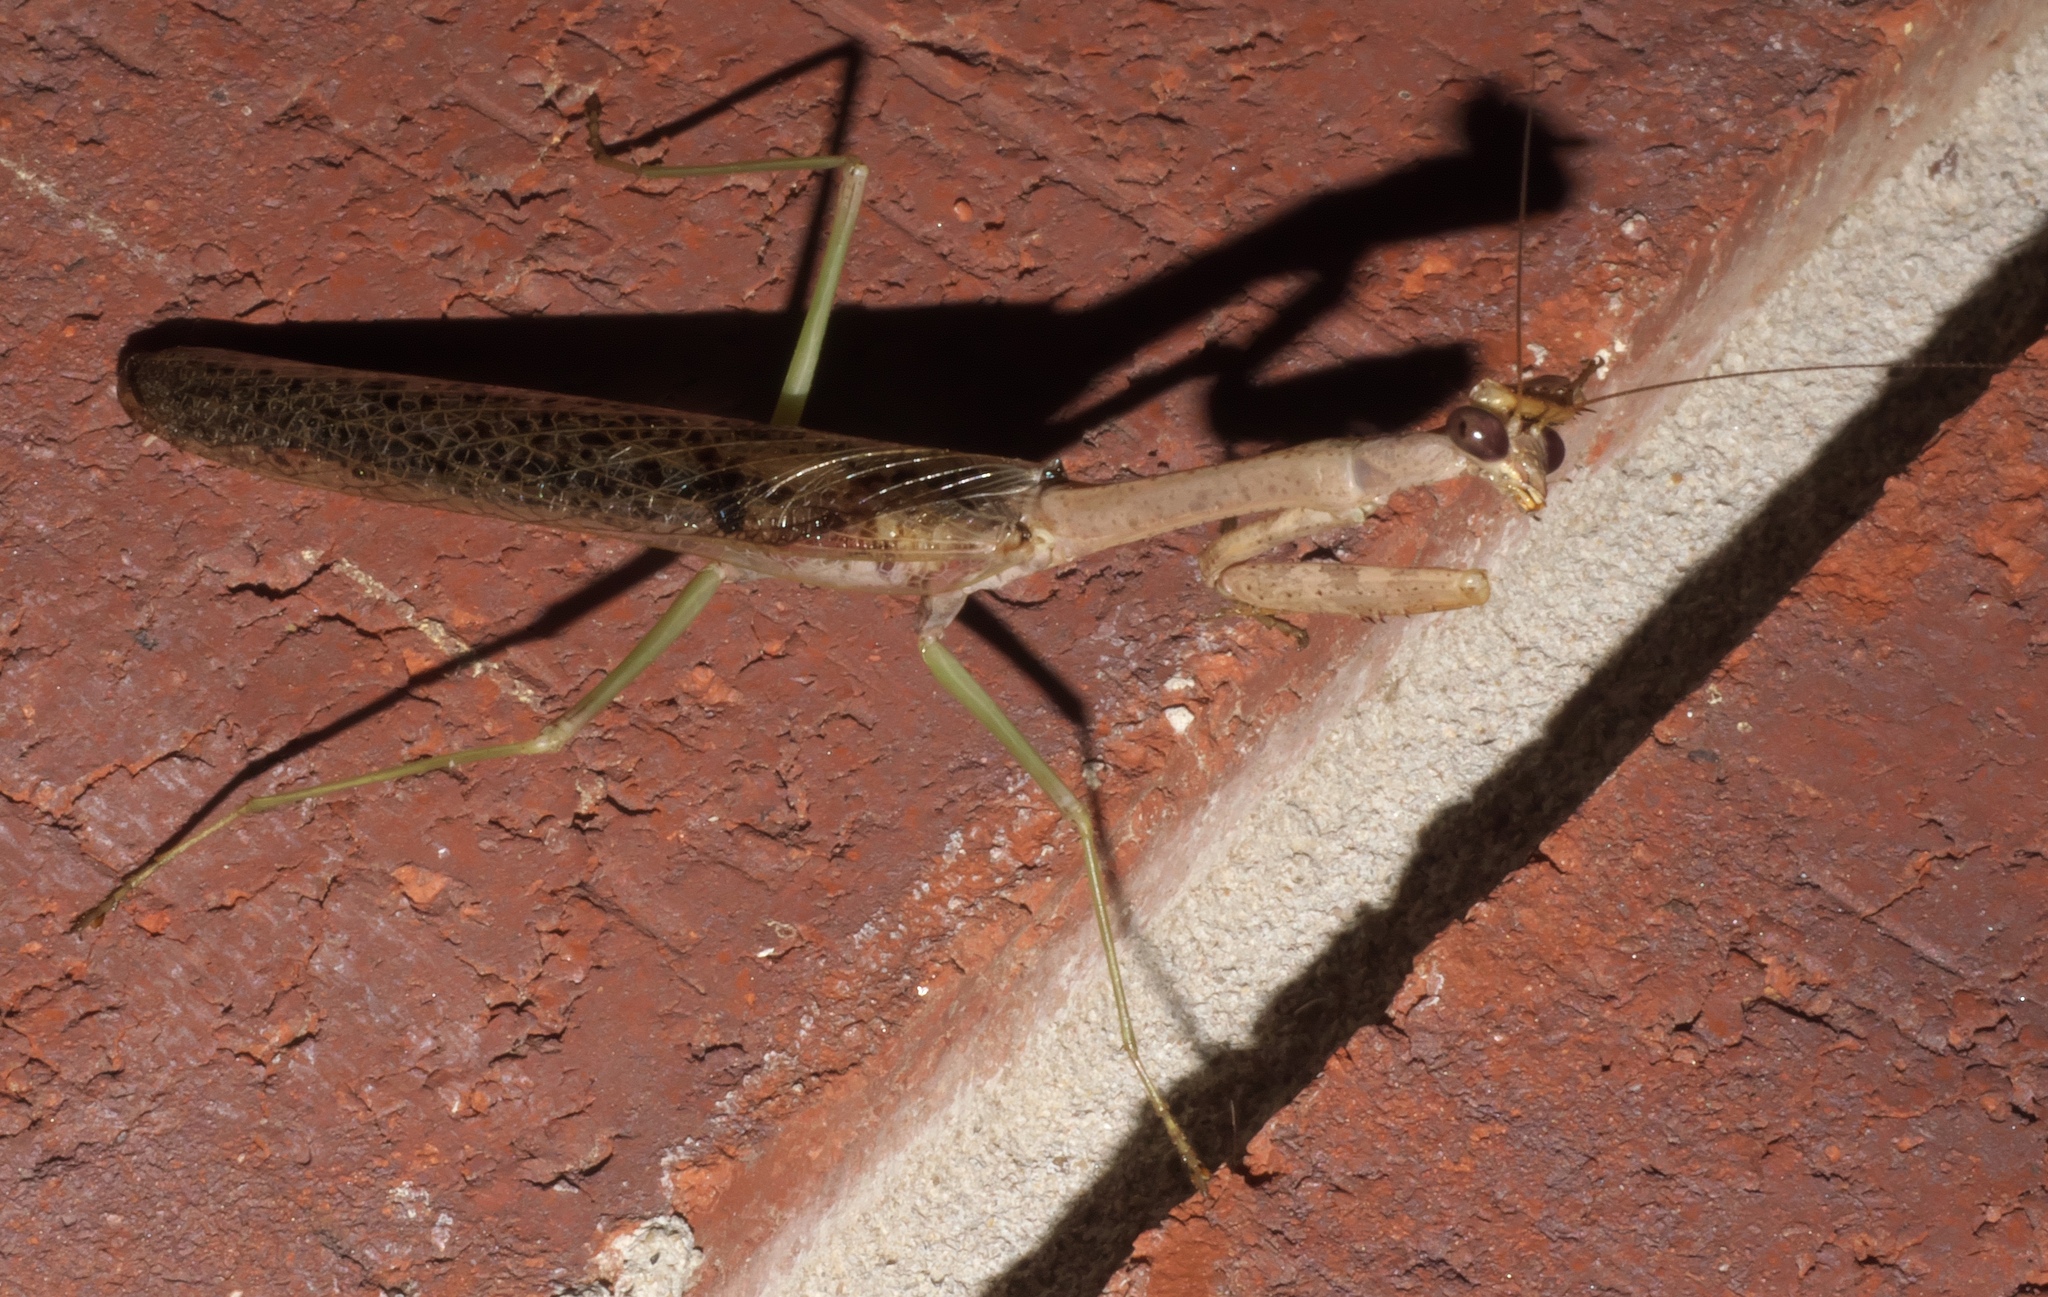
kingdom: Animalia
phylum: Arthropoda
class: Insecta
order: Mantodea
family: Mantidae
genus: Stagmomantis
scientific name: Stagmomantis carolina
